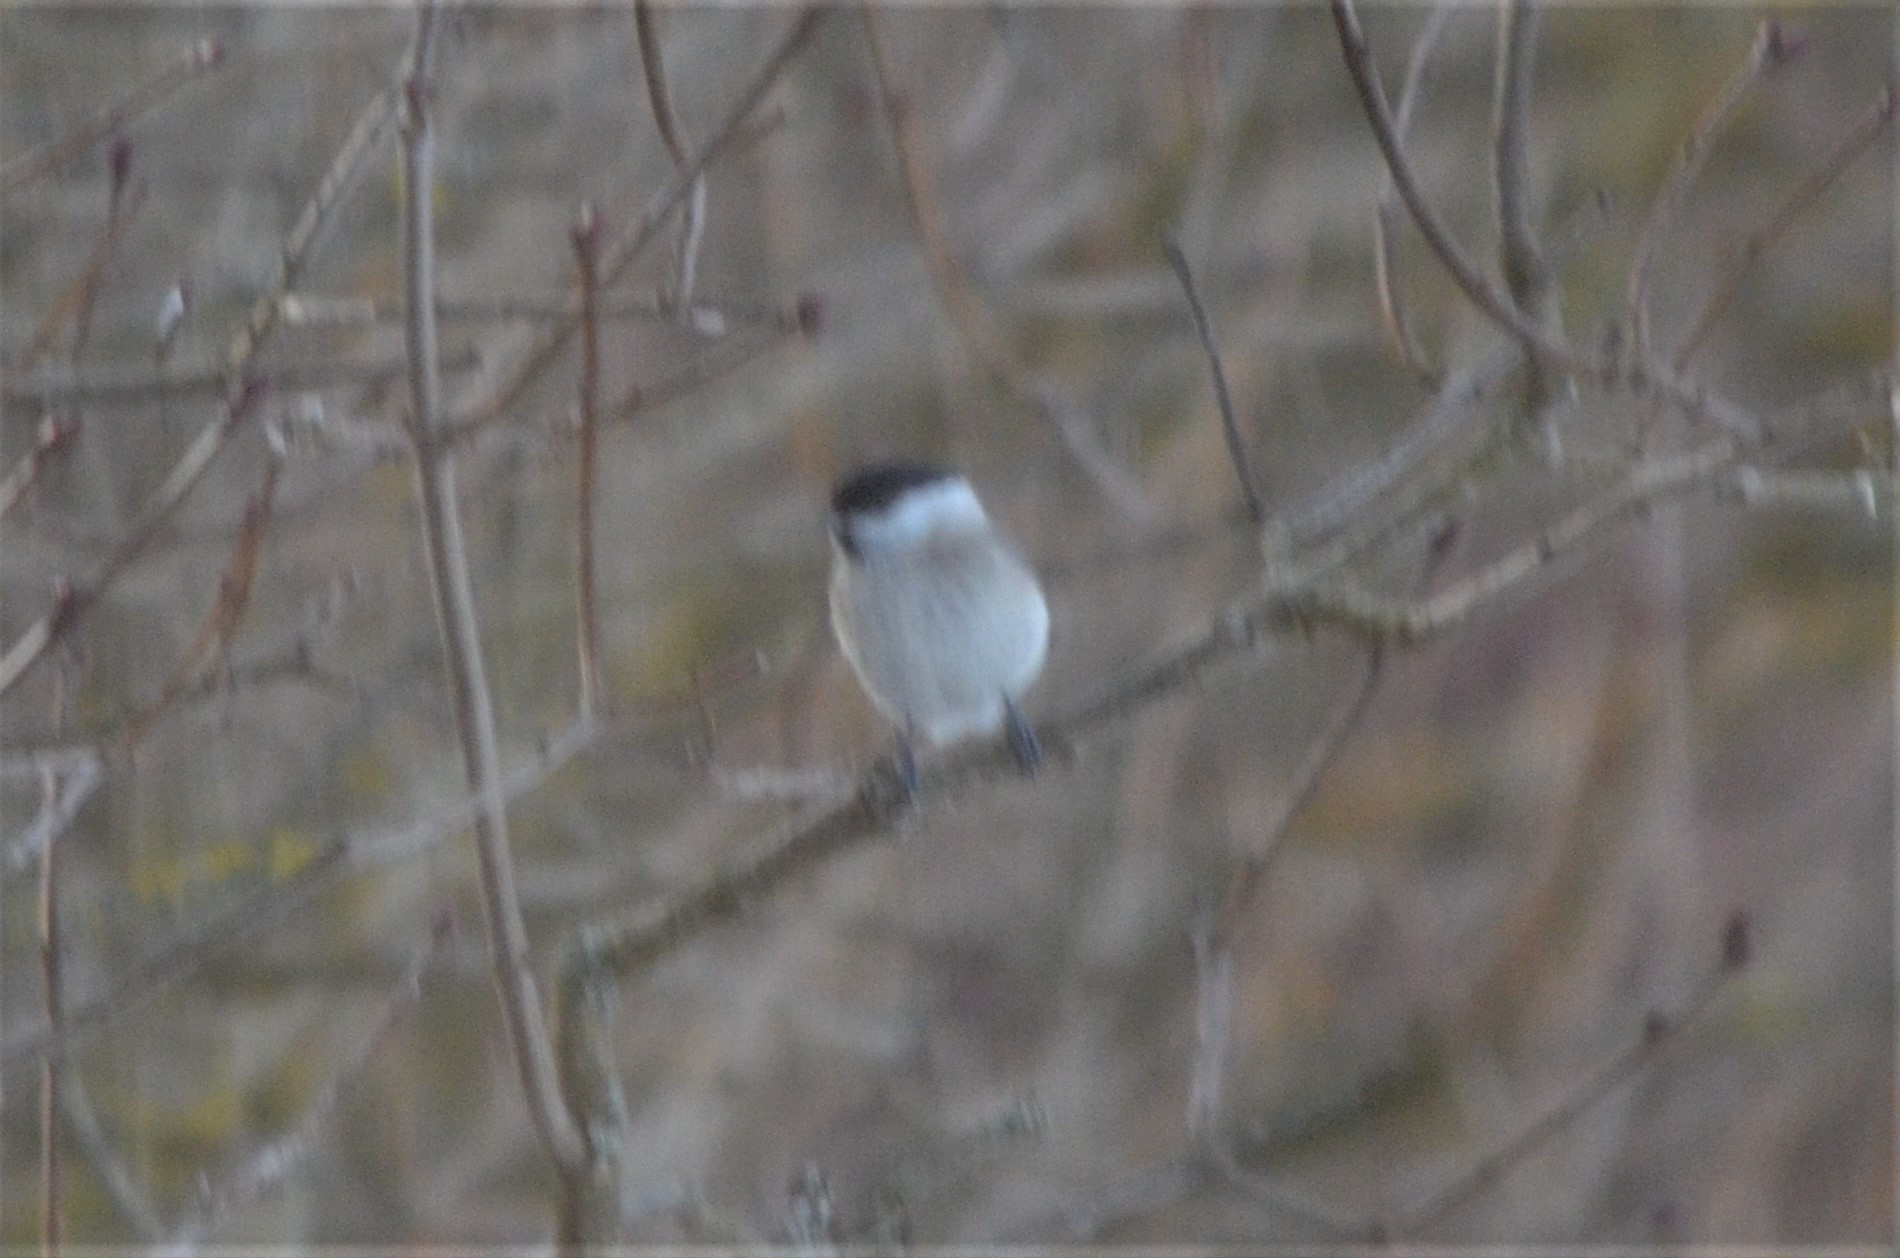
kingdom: Animalia
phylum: Chordata
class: Aves
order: Passeriformes
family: Paridae
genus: Poecile
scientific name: Poecile palustris
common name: Marsh tit
